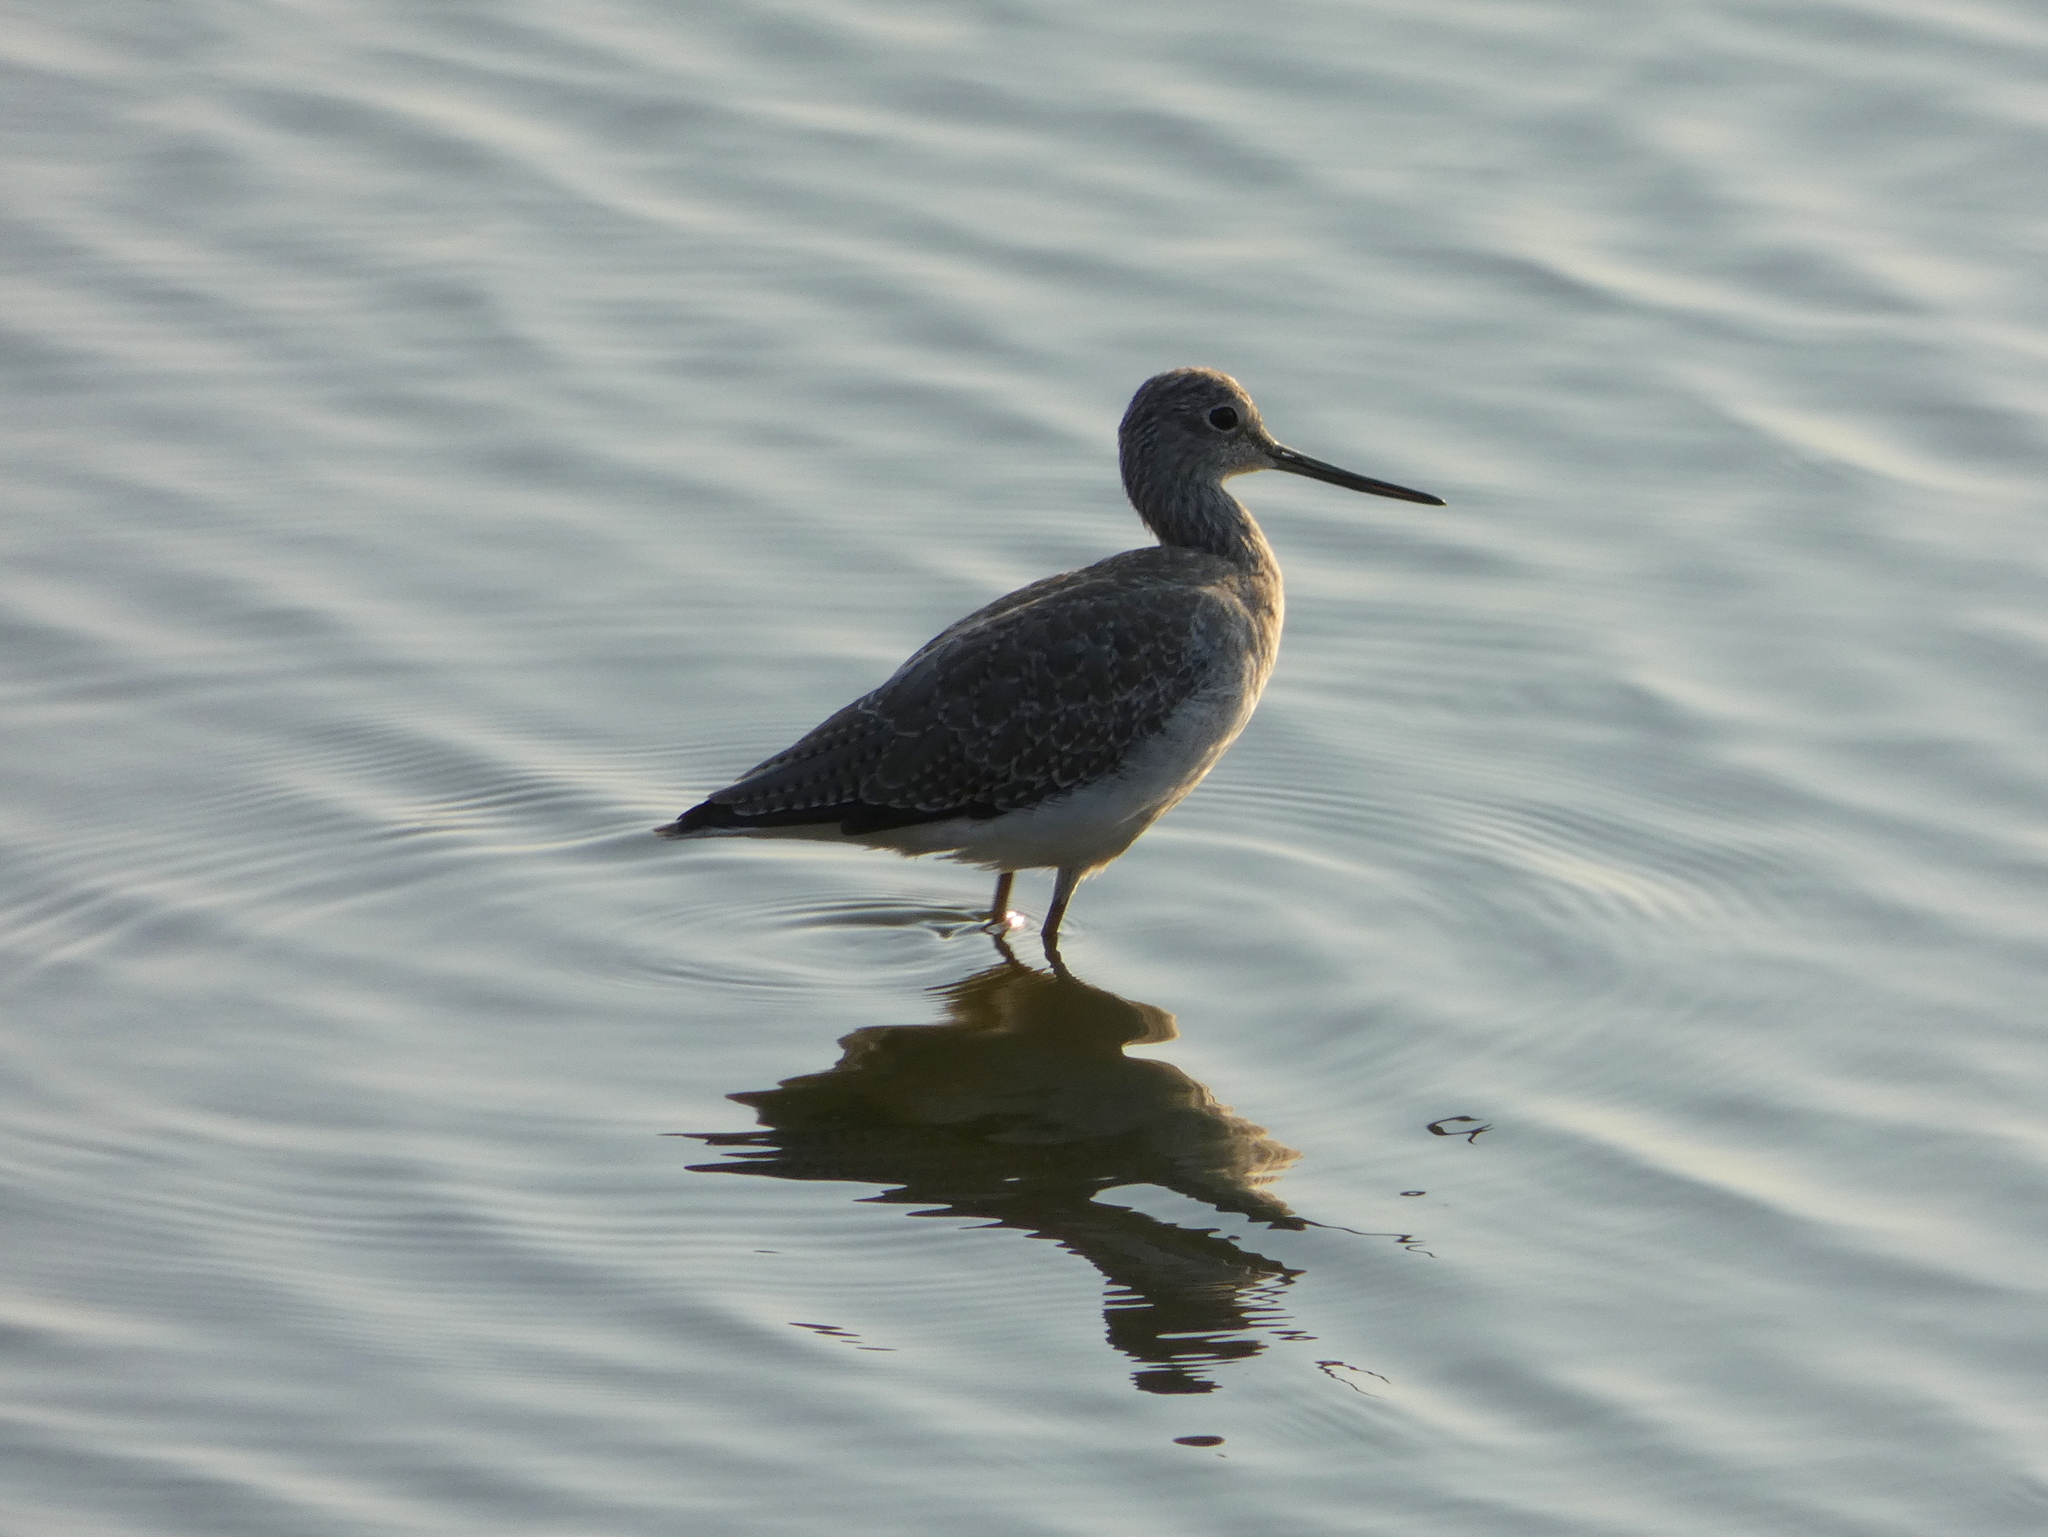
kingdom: Animalia
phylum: Chordata
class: Aves
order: Charadriiformes
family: Scolopacidae
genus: Tringa
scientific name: Tringa melanoleuca
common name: Greater yellowlegs
